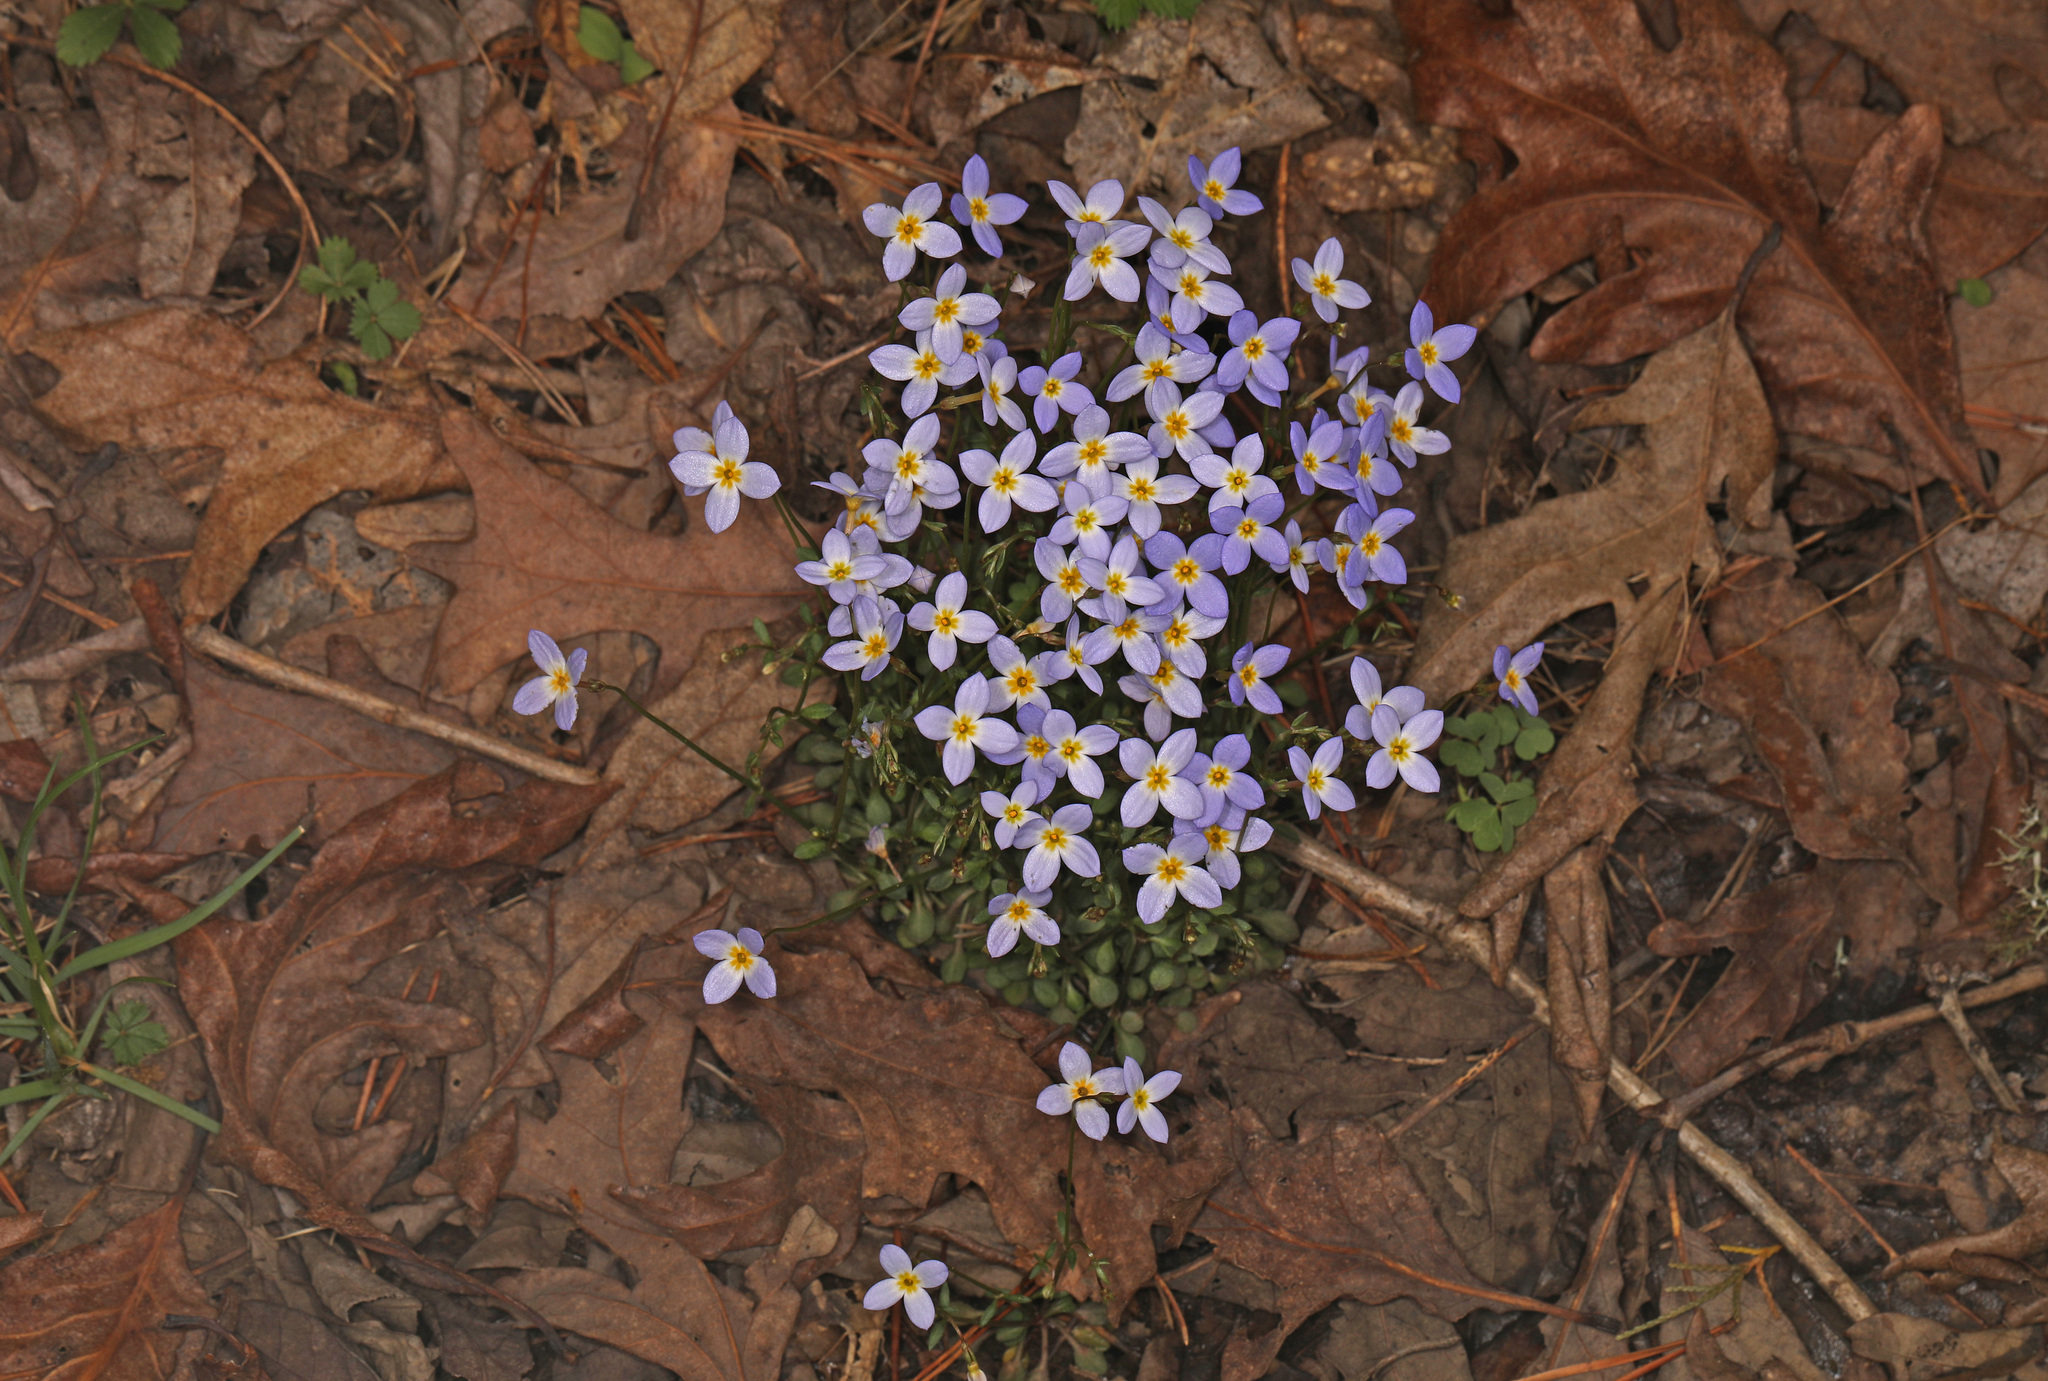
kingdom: Plantae
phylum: Tracheophyta
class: Magnoliopsida
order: Gentianales
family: Rubiaceae
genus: Houstonia
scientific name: Houstonia caerulea
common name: Bluets
